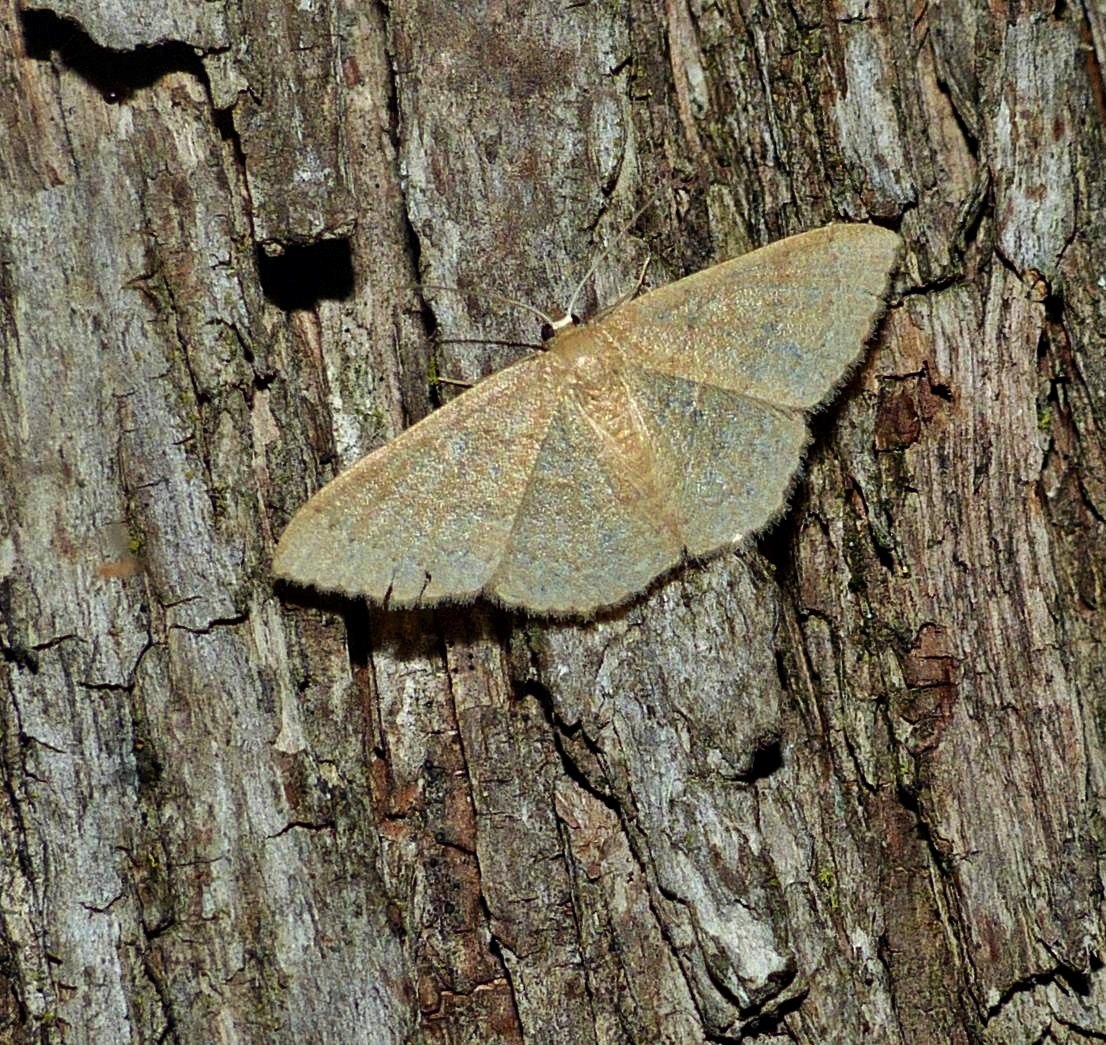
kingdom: Animalia
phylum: Arthropoda
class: Insecta
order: Lepidoptera
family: Geometridae
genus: Pleuroprucha
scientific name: Pleuroprucha insulsaria
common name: Common tan wave
